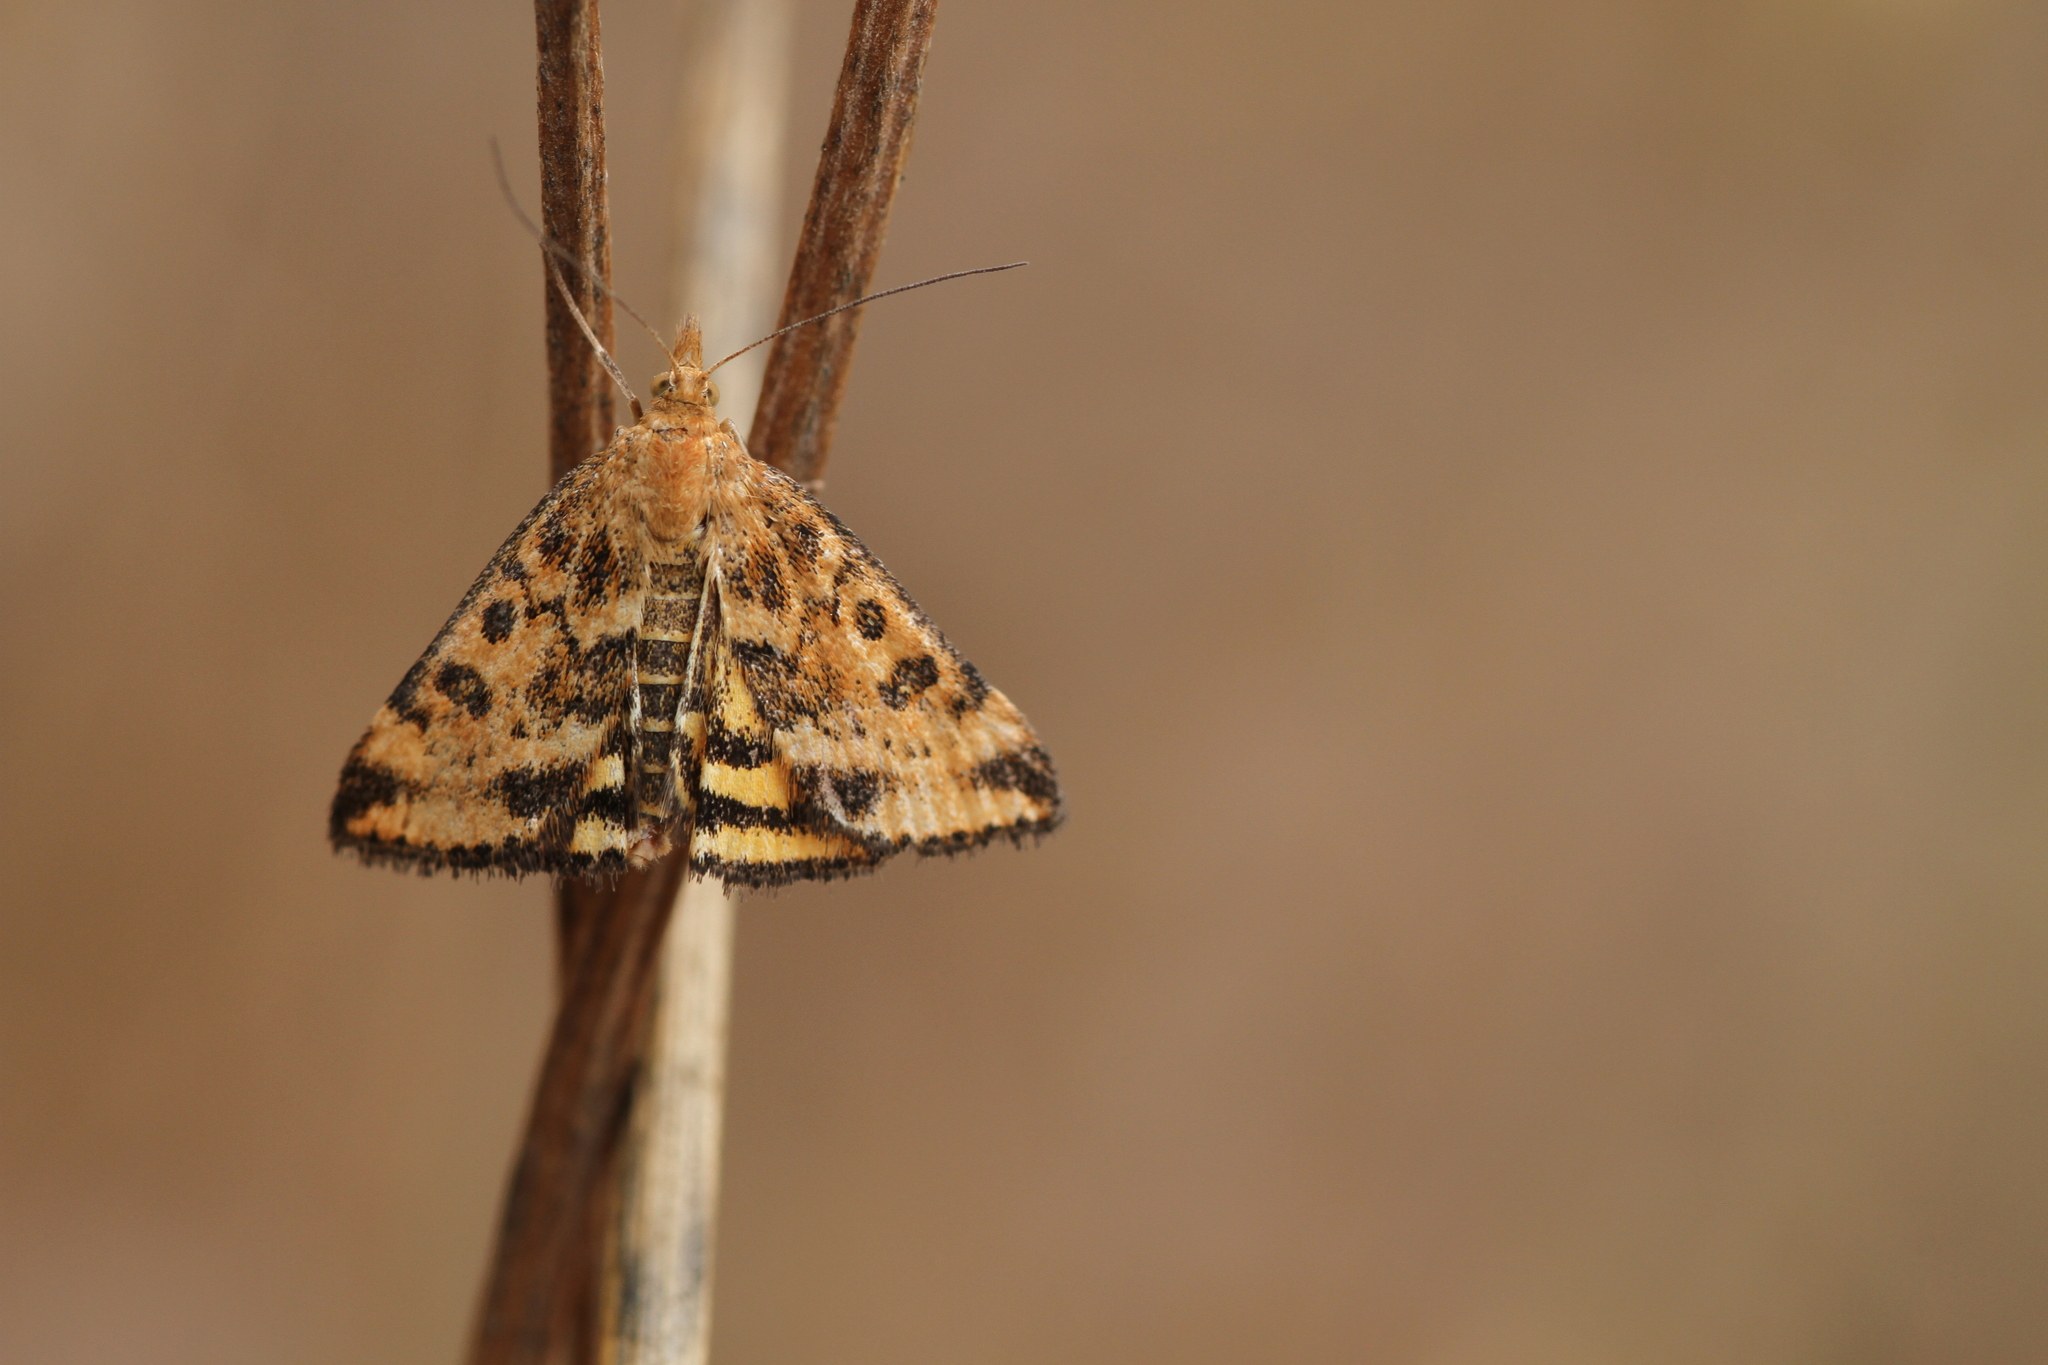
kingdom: Animalia
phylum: Arthropoda
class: Insecta
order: Lepidoptera
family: Crambidae
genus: Pyrausta
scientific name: Pyrausta subsequalis
